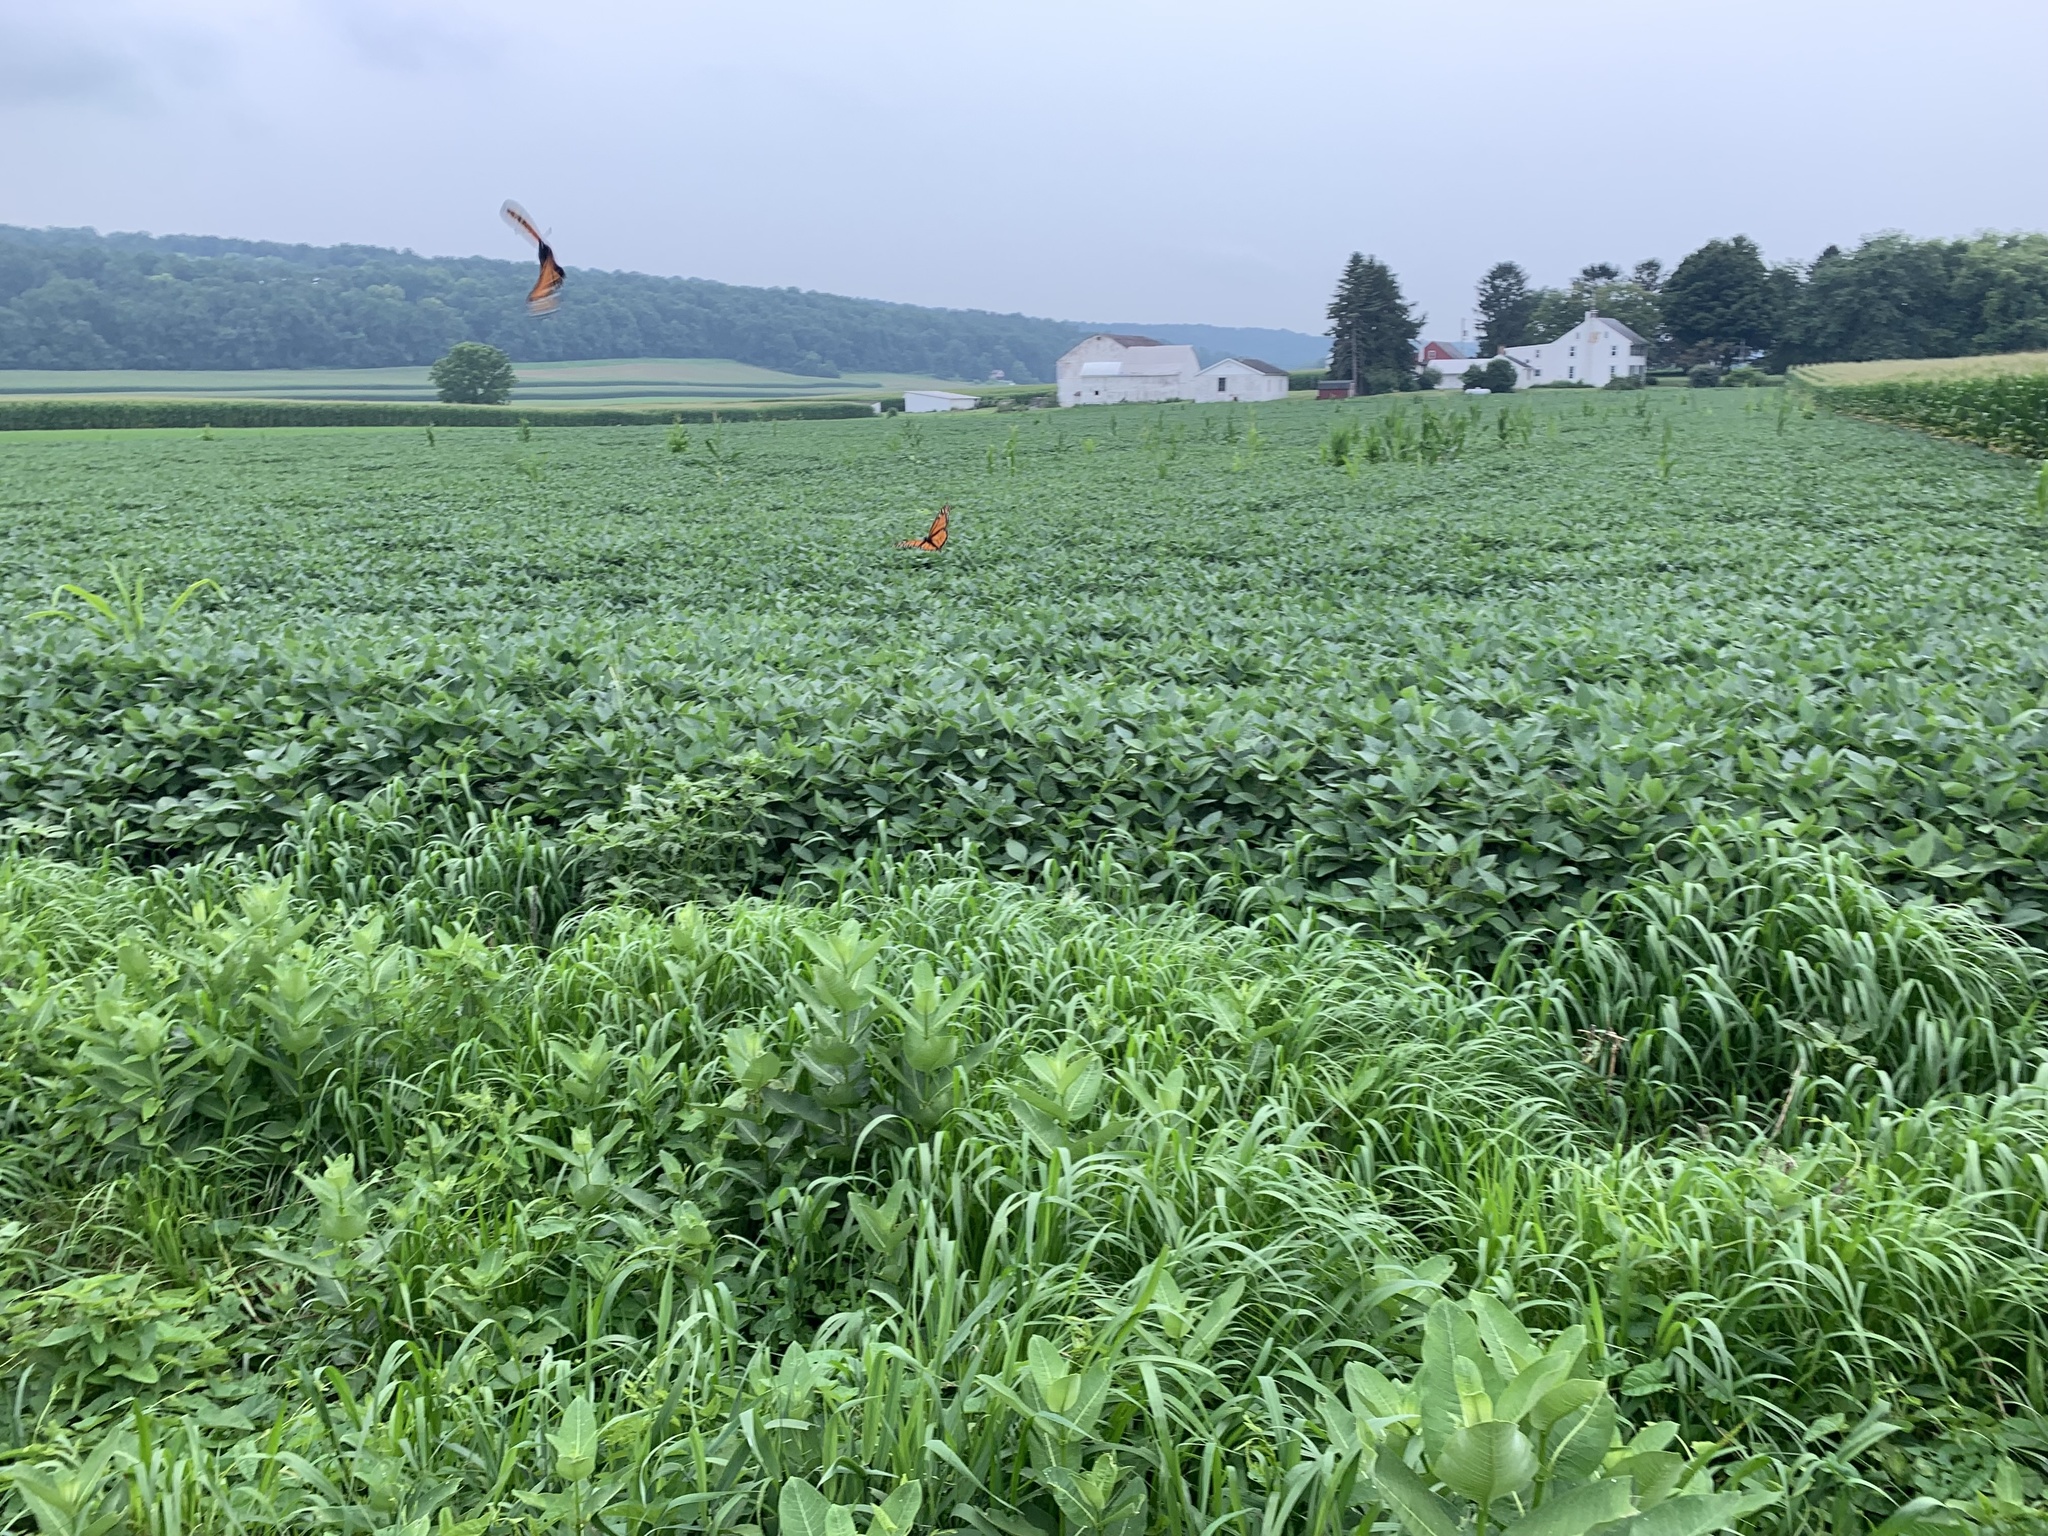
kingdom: Animalia
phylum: Arthropoda
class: Insecta
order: Lepidoptera
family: Nymphalidae
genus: Danaus
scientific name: Danaus plexippus
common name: Monarch
